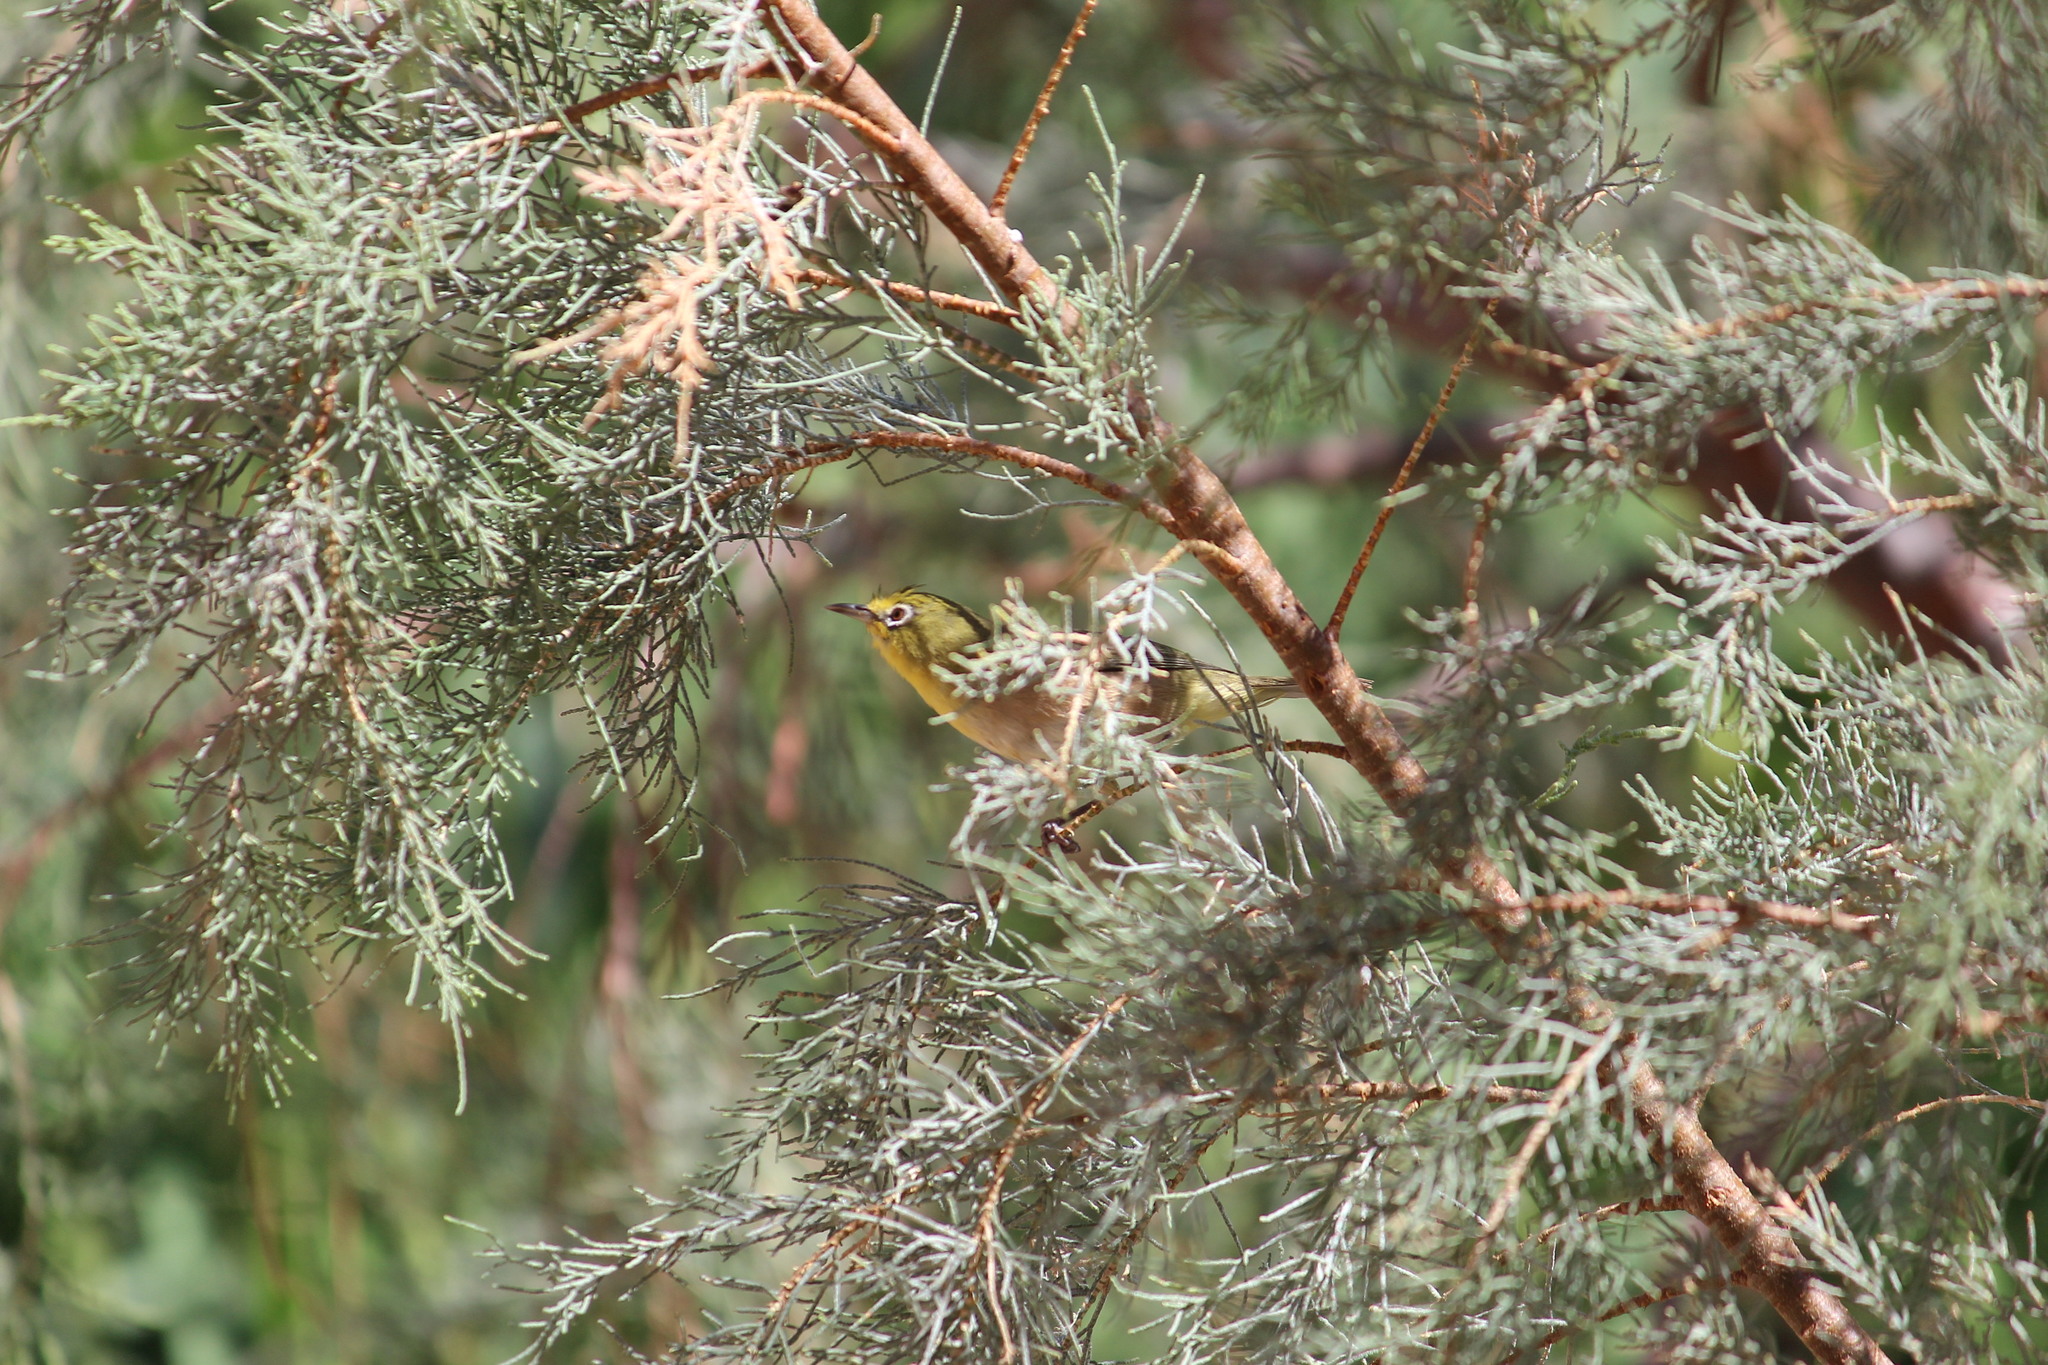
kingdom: Animalia
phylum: Chordata
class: Aves
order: Passeriformes
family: Zosteropidae
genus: Zosterops
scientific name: Zosterops pallidus
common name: Orange river white-eye
